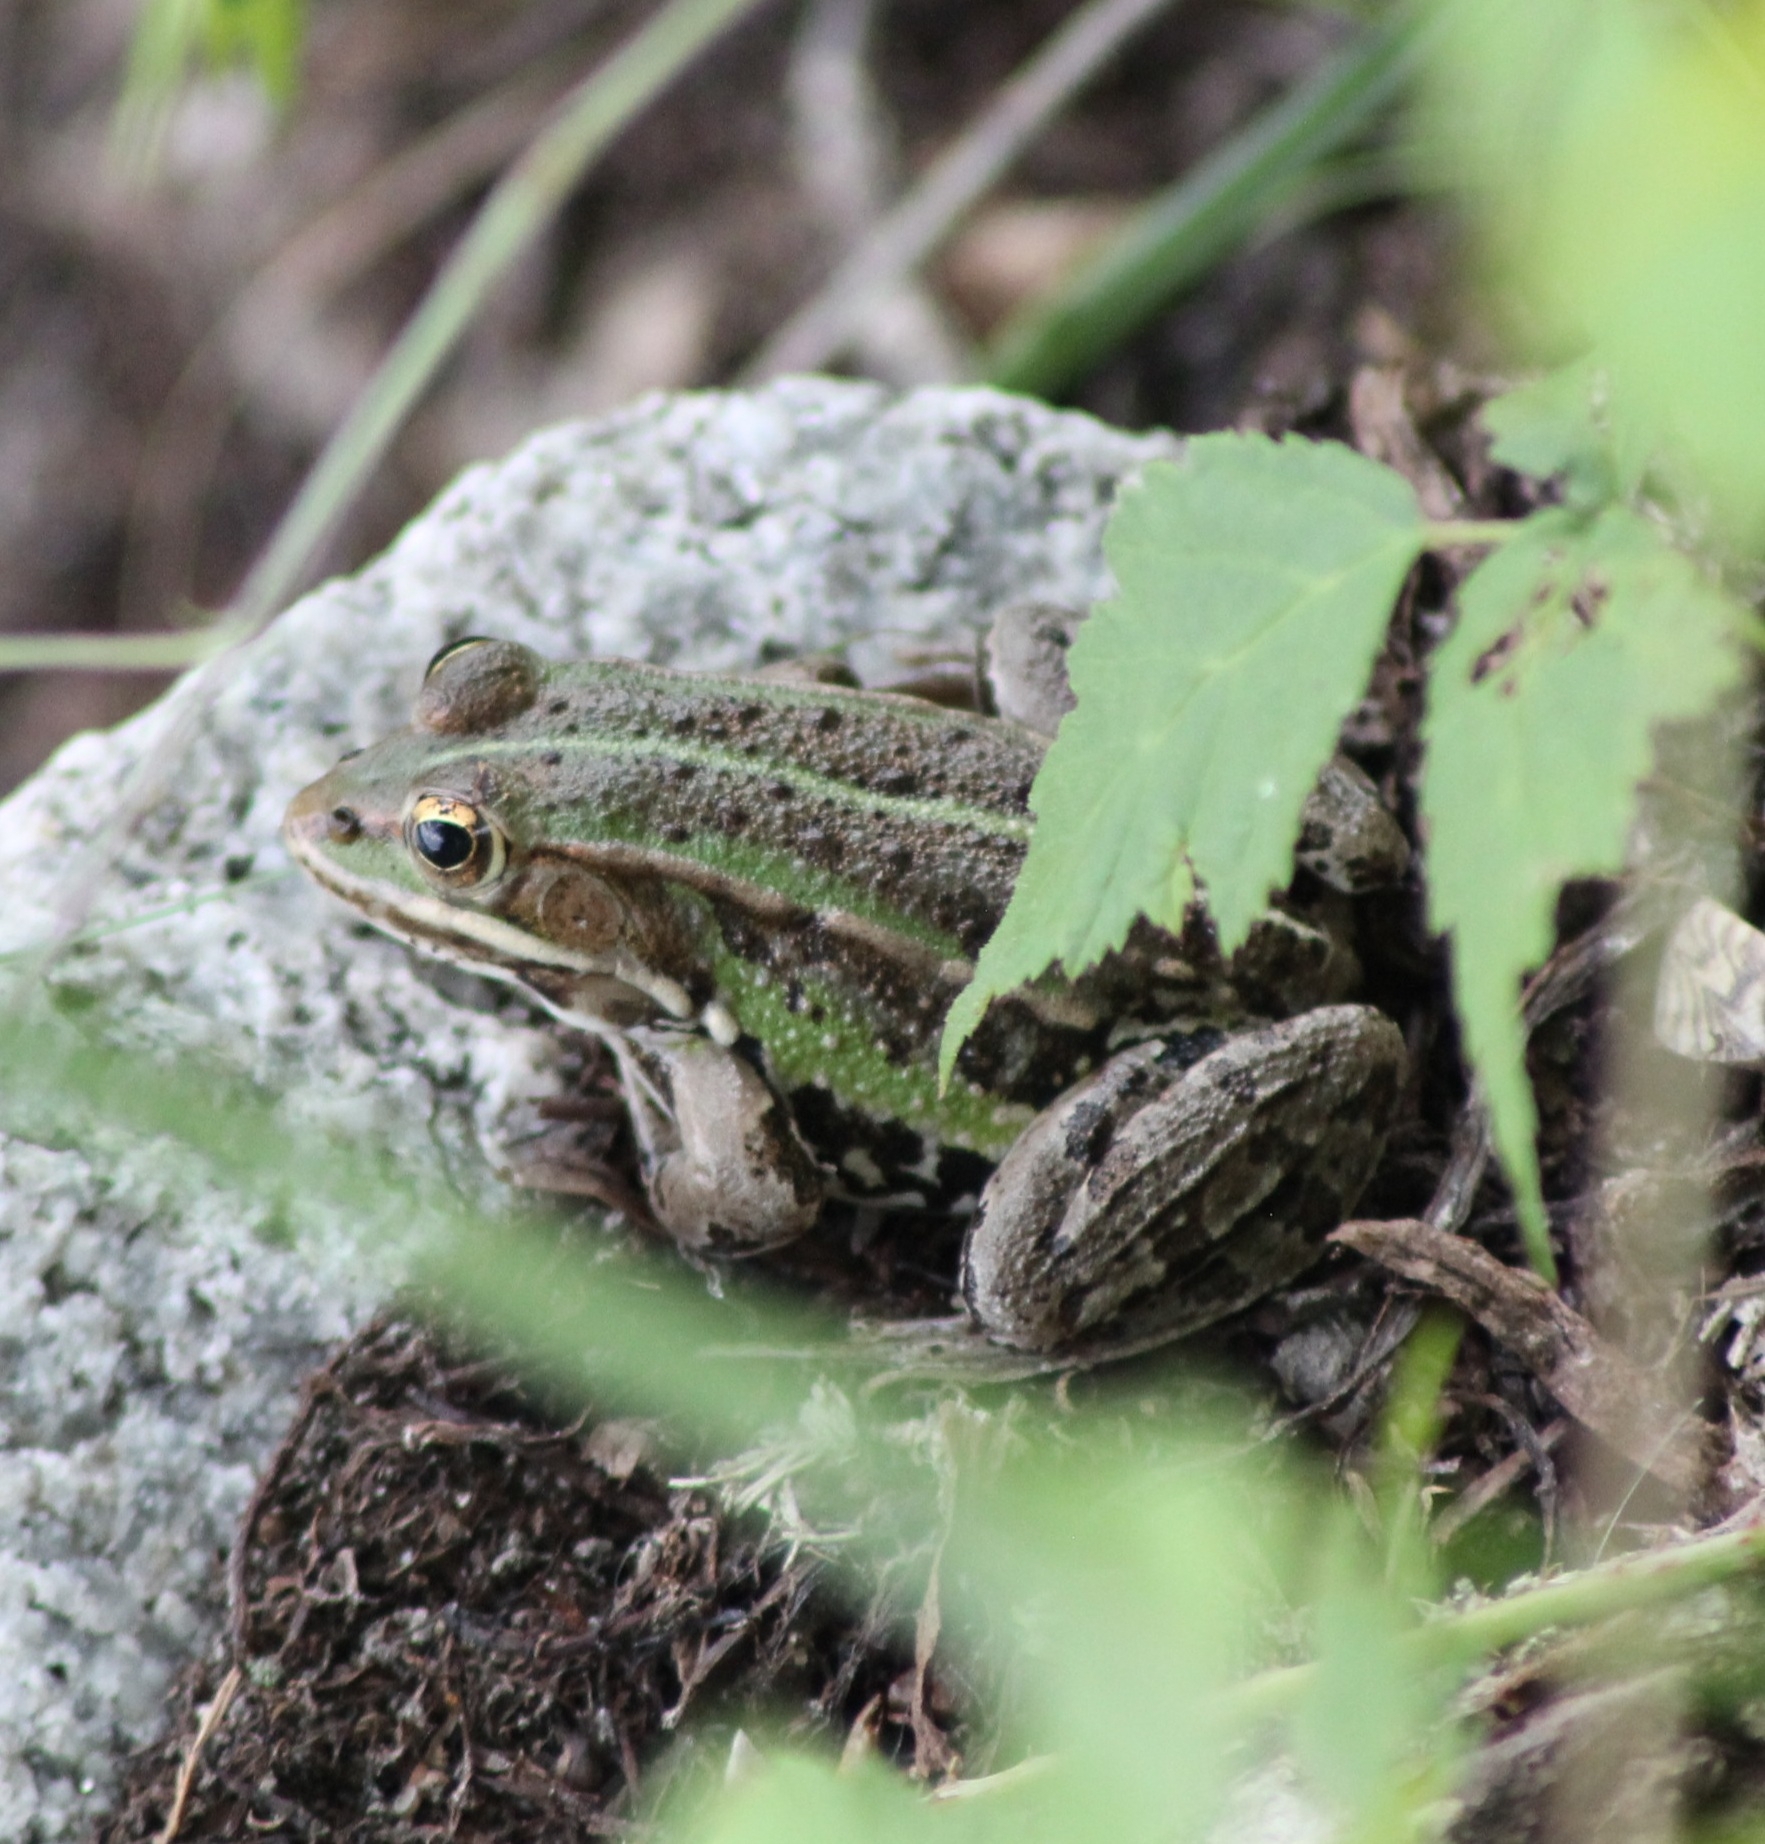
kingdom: Animalia
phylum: Chordata
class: Amphibia
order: Anura
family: Ranidae
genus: Pelophylax
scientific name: Pelophylax
